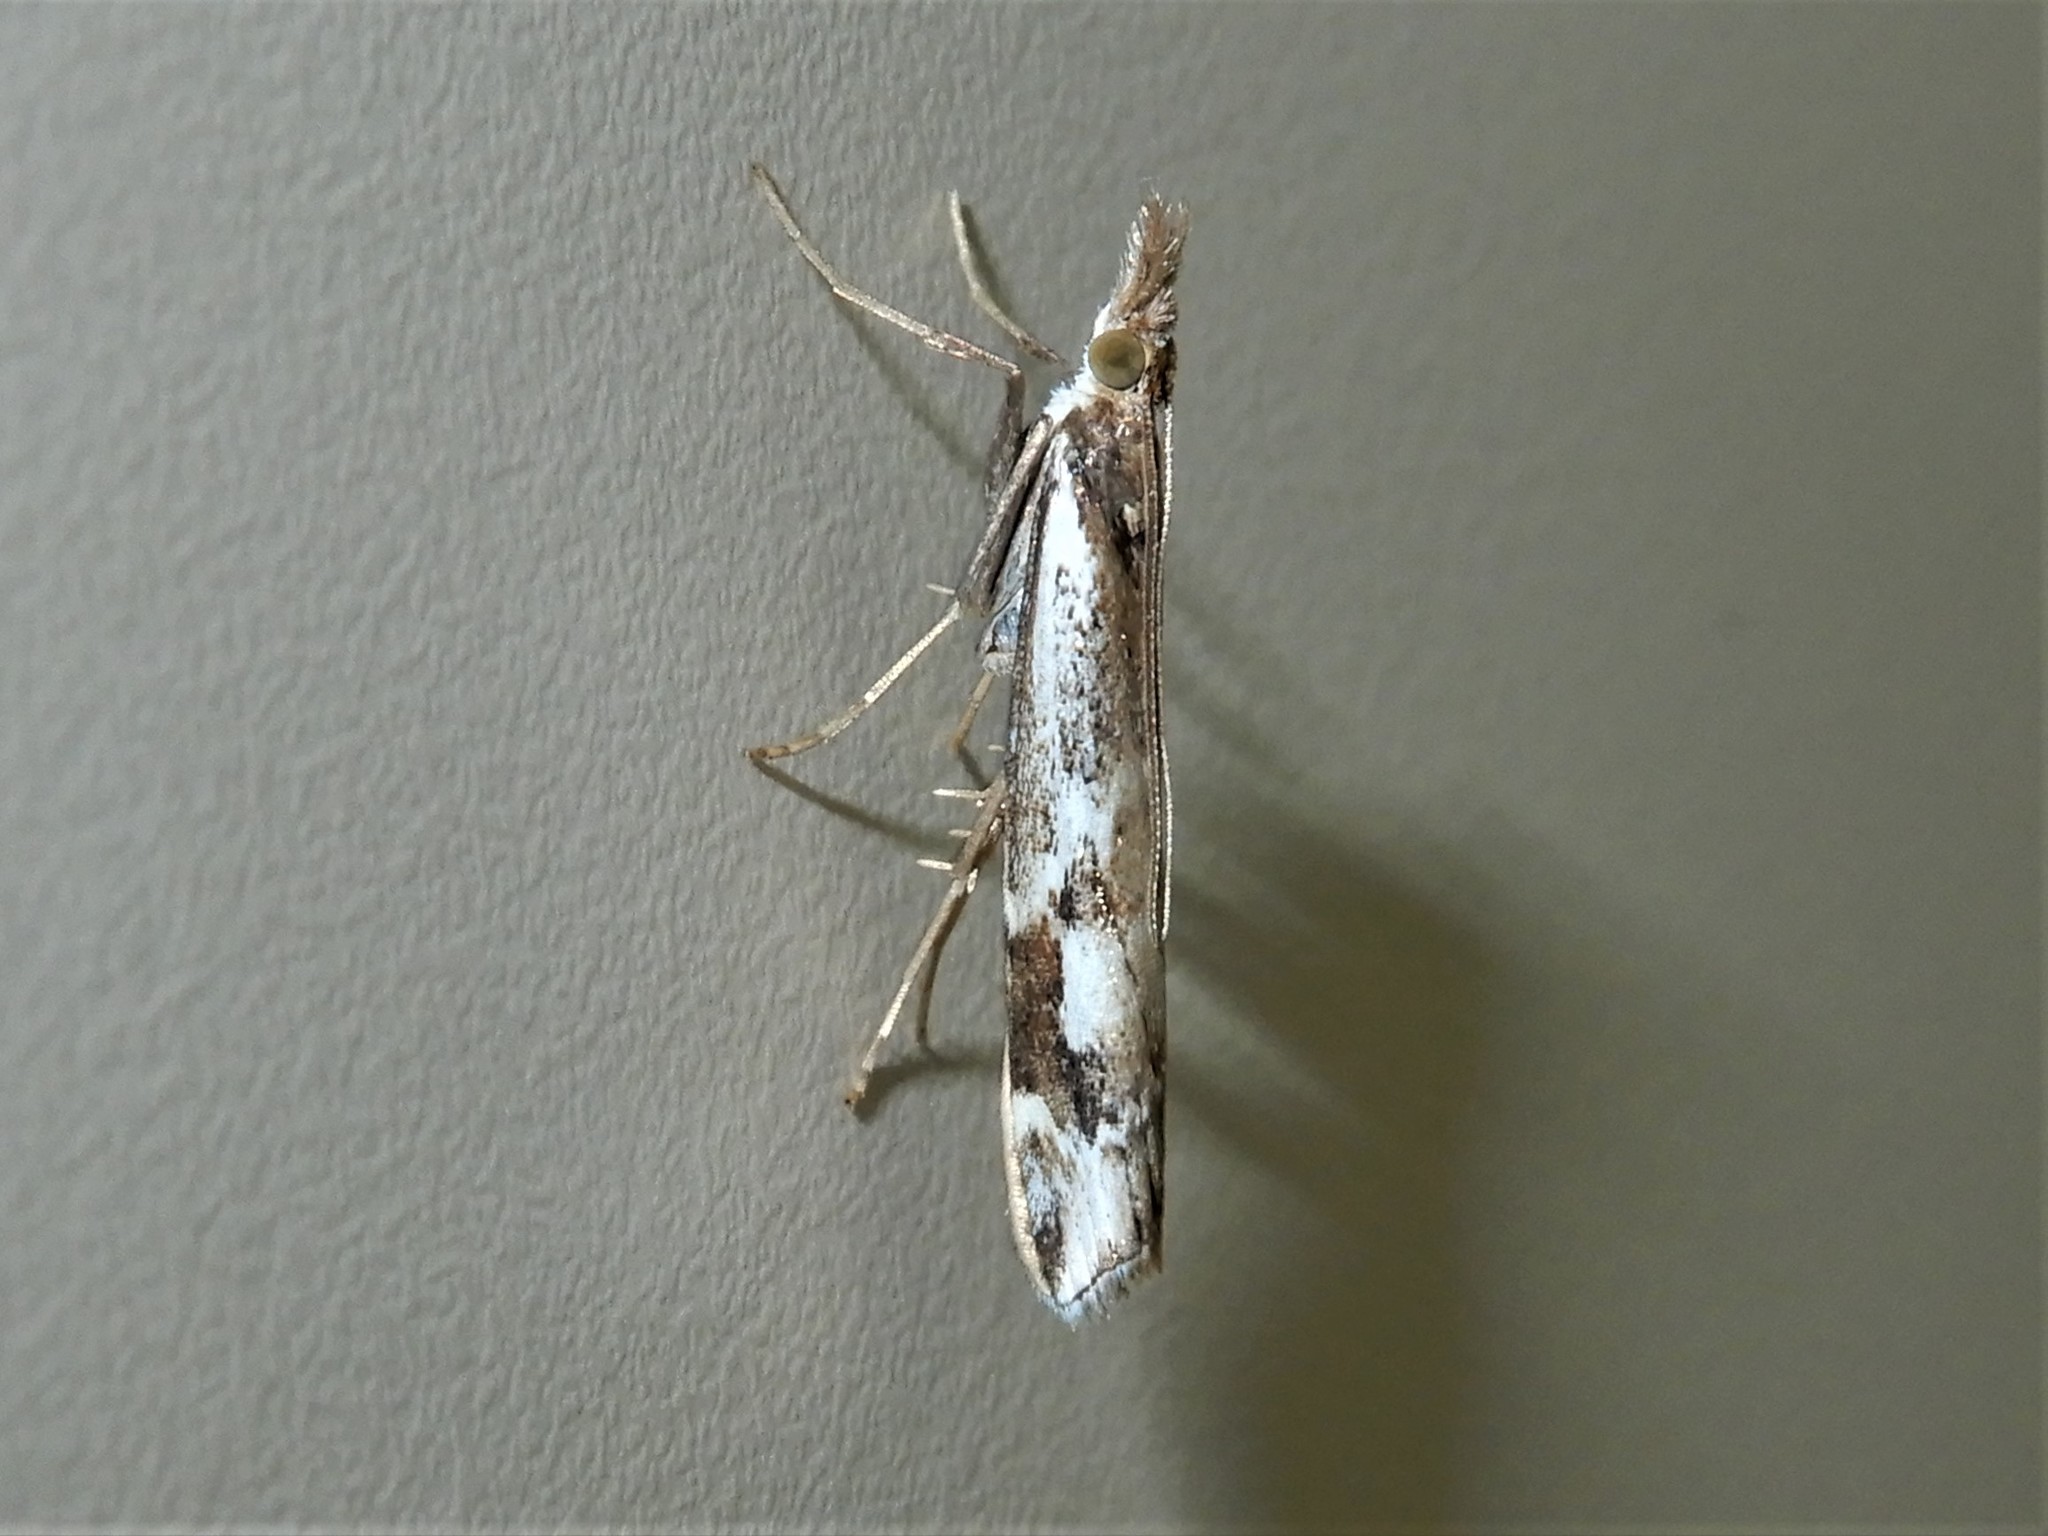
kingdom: Animalia
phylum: Arthropoda
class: Insecta
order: Lepidoptera
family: Crambidae
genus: Orocrambus
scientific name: Orocrambus vulgaris
